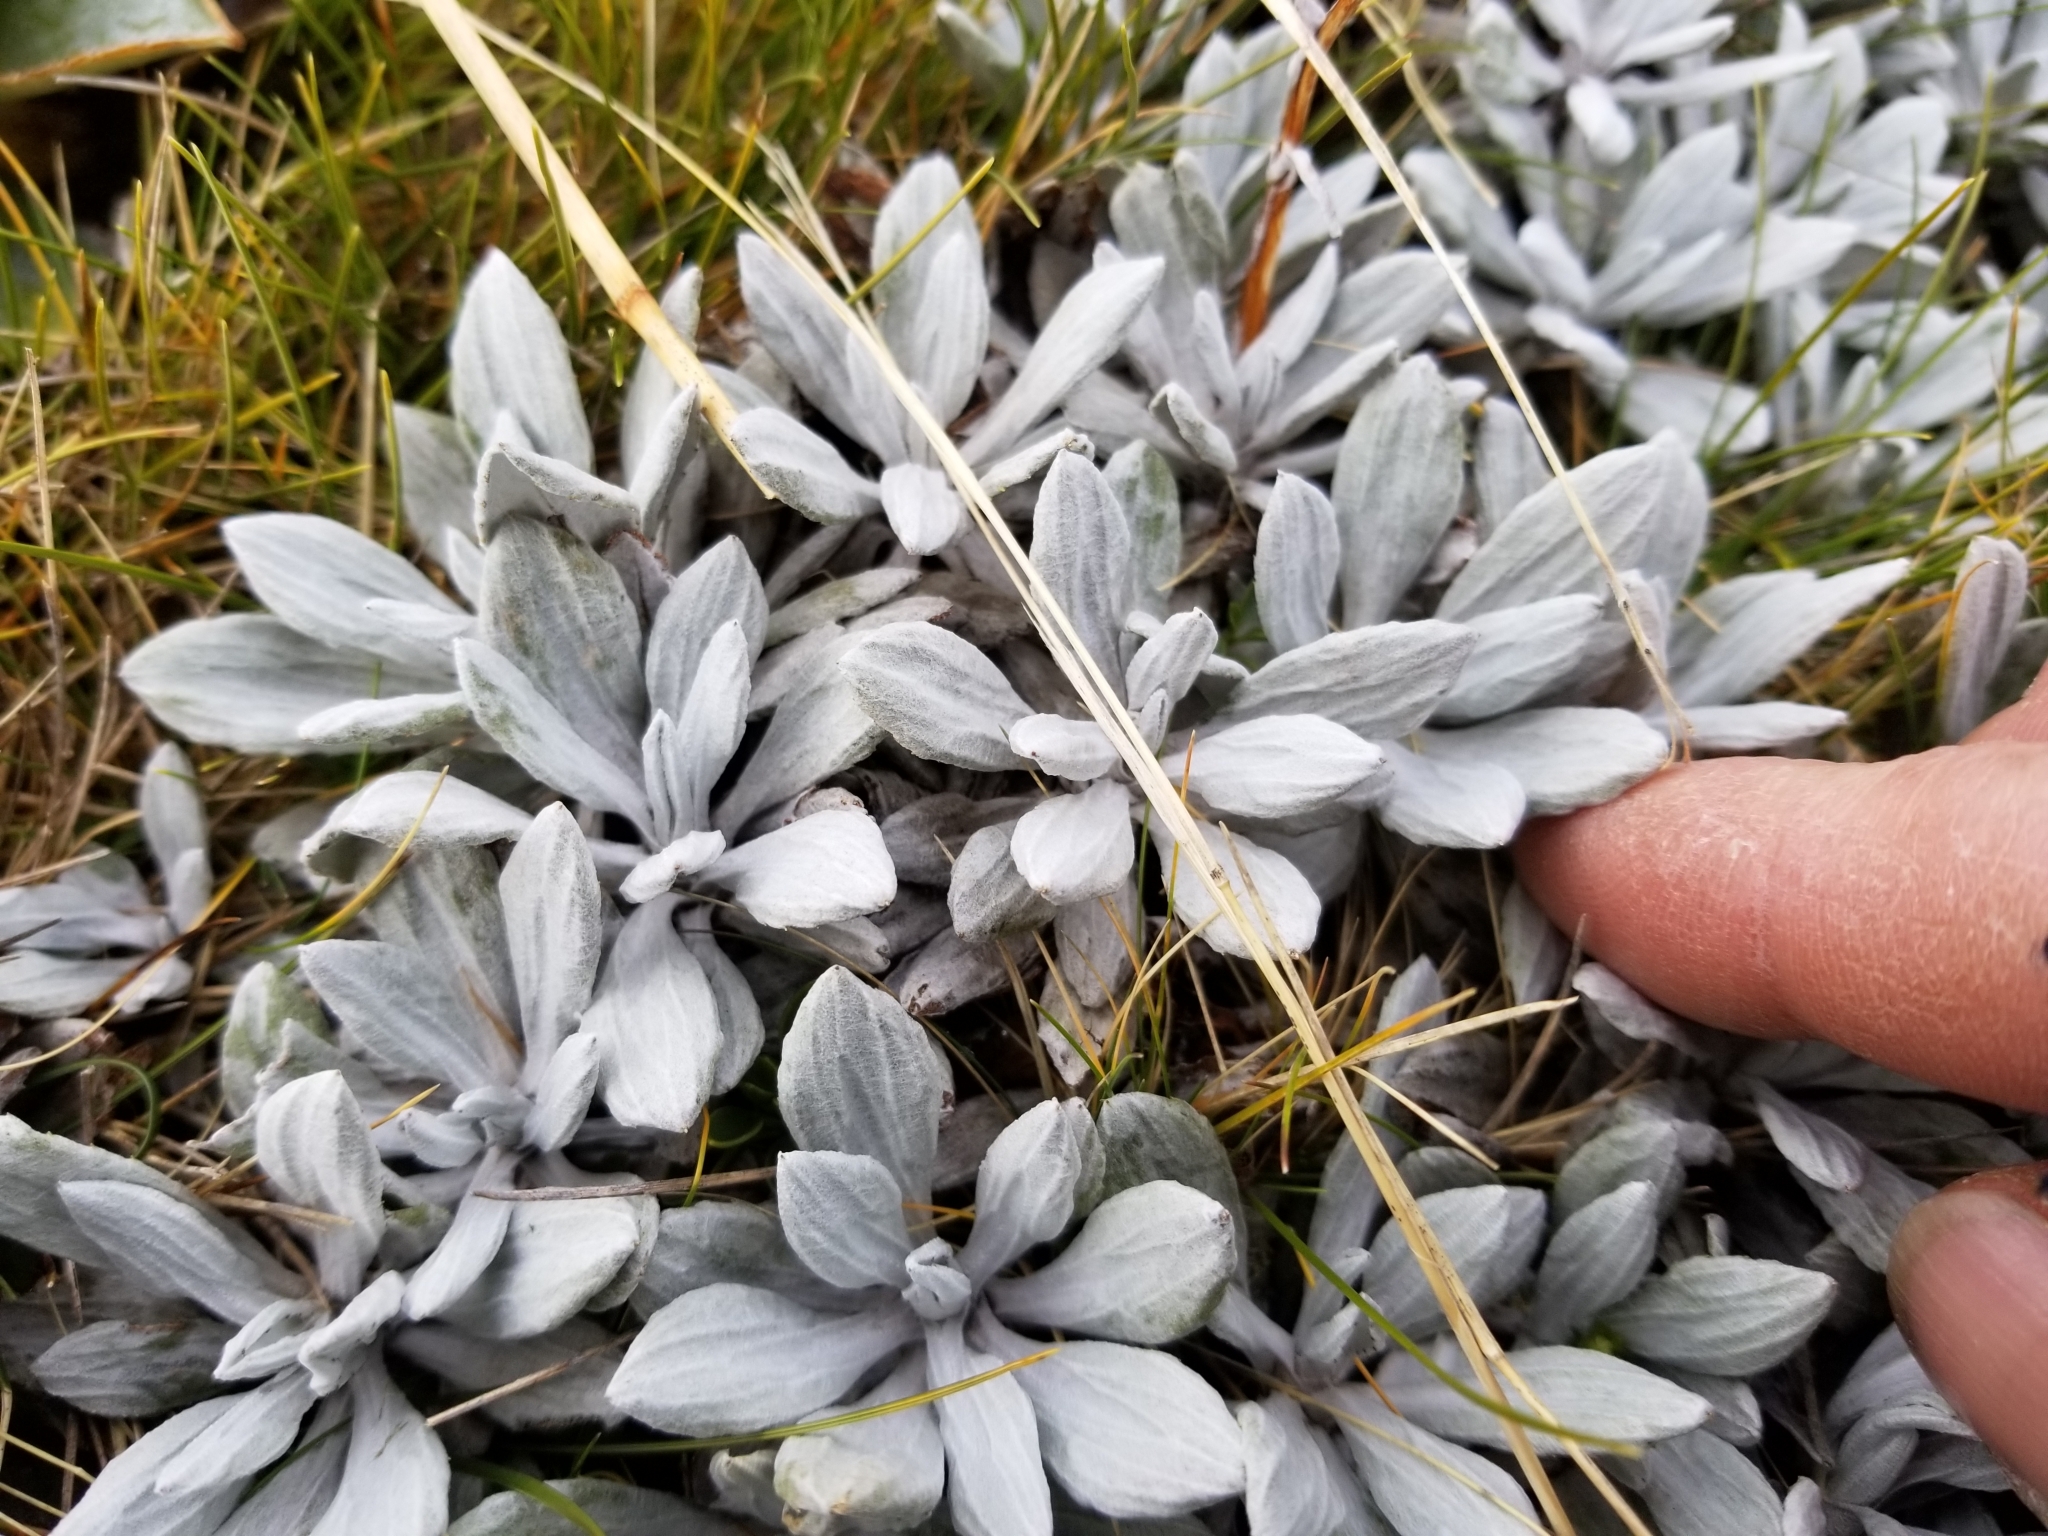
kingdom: Plantae
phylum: Tracheophyta
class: Magnoliopsida
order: Asterales
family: Asteraceae
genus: Celmisia
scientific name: Celmisia incana
